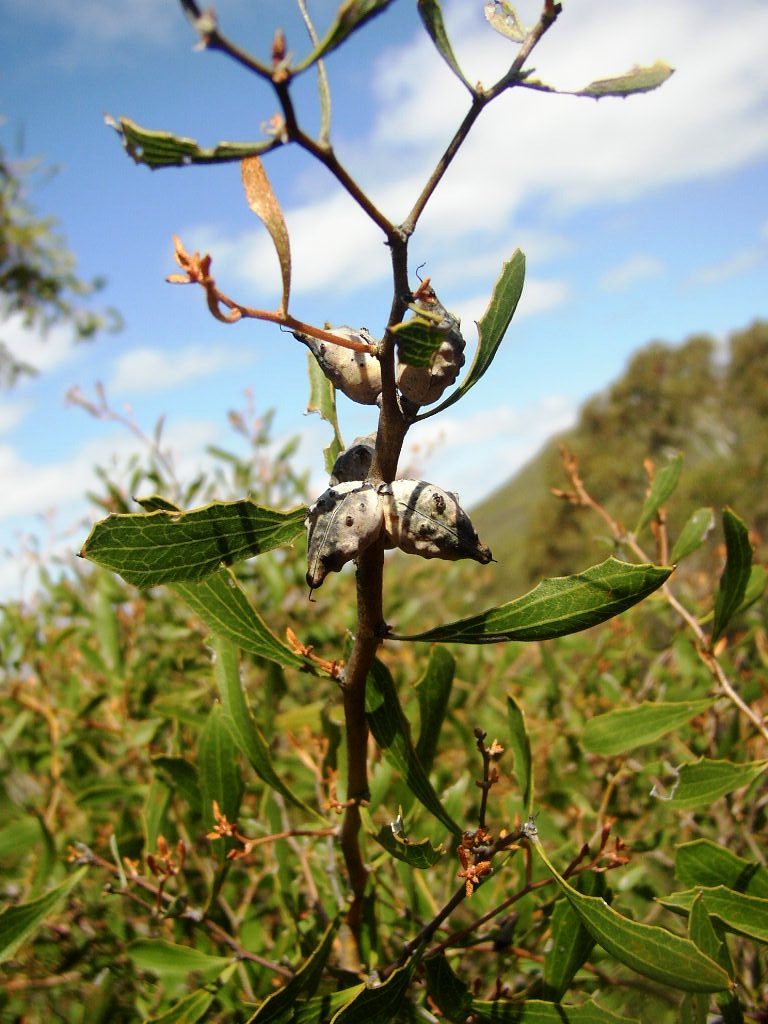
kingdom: Plantae
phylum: Tracheophyta
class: Magnoliopsida
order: Proteales
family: Proteaceae
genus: Hakea
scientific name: Hakea anadenia
